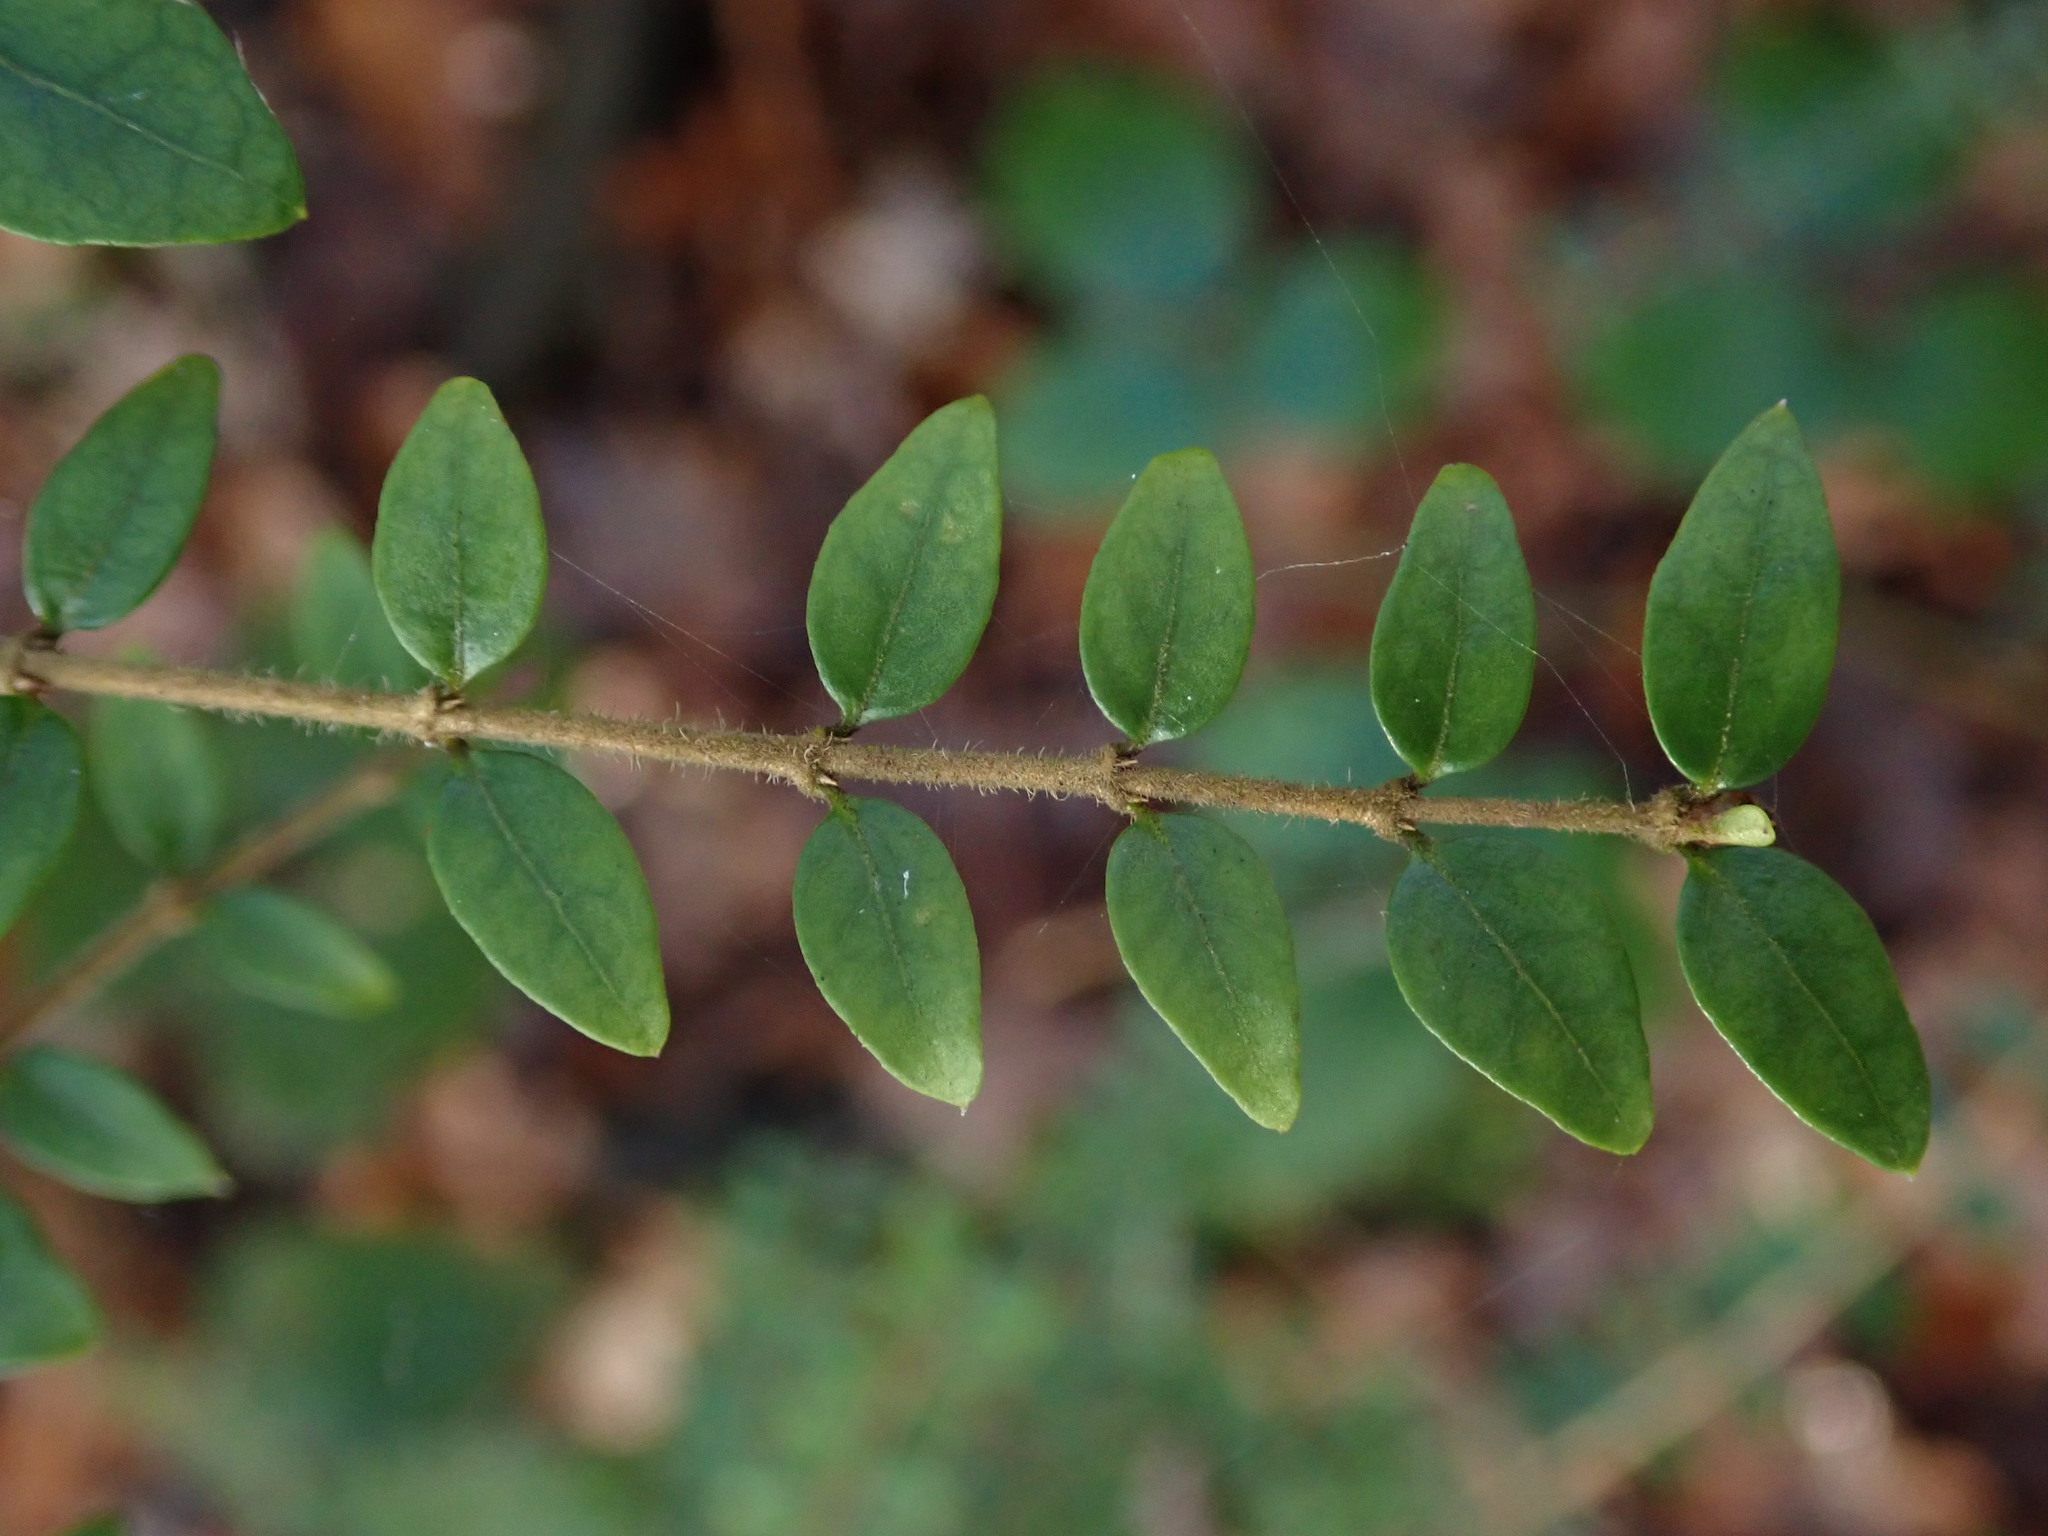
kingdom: Plantae
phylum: Tracheophyta
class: Magnoliopsida
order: Dipsacales
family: Caprifoliaceae
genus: Lonicera
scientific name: Lonicera pileata
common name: Box-leaved honeysuckle
